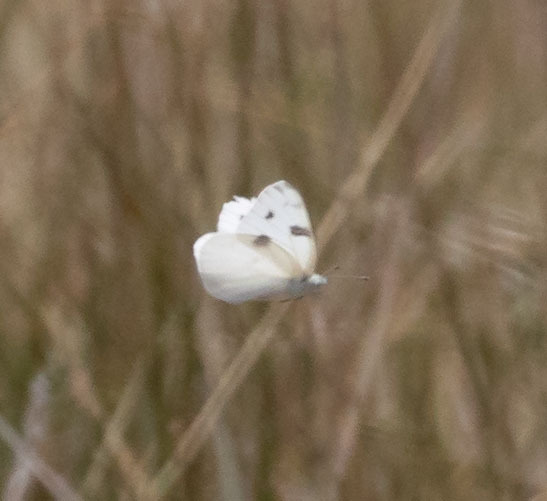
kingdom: Animalia
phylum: Arthropoda
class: Insecta
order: Lepidoptera
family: Pieridae
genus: Pontia
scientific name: Pontia protodice
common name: Checkered white
